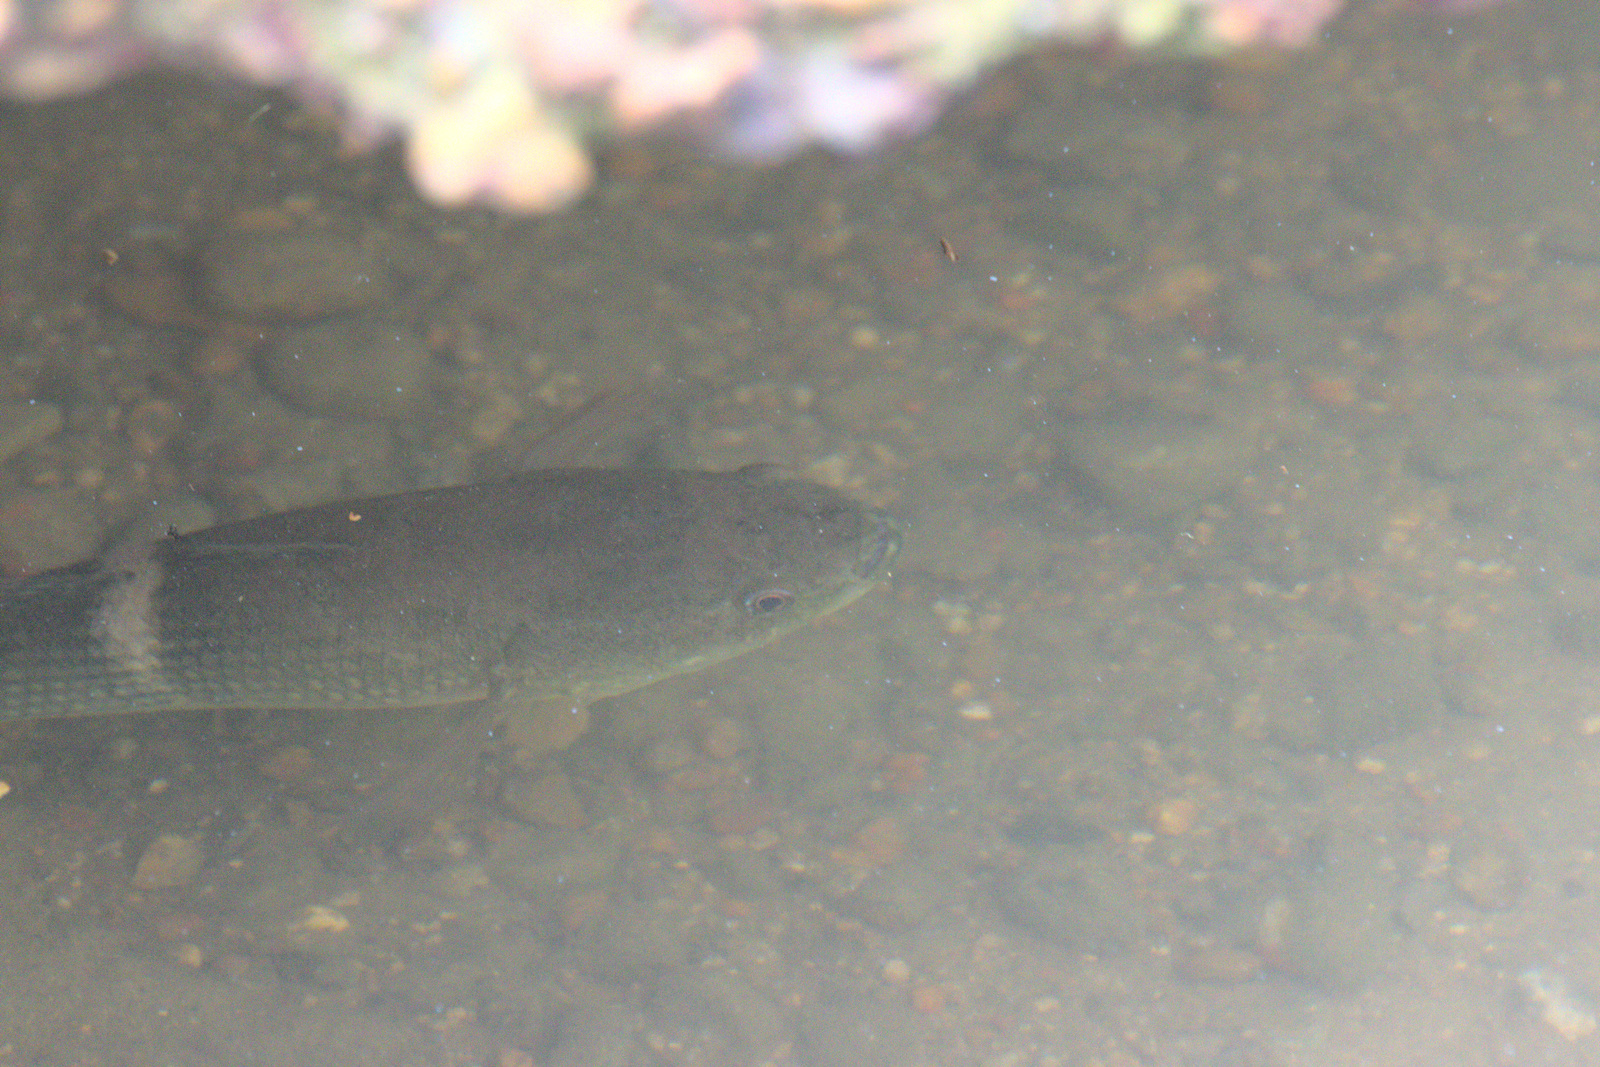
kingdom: Animalia
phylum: Chordata
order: Perciformes
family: Eleotridae
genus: Ophiocara
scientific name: Ophiocara
